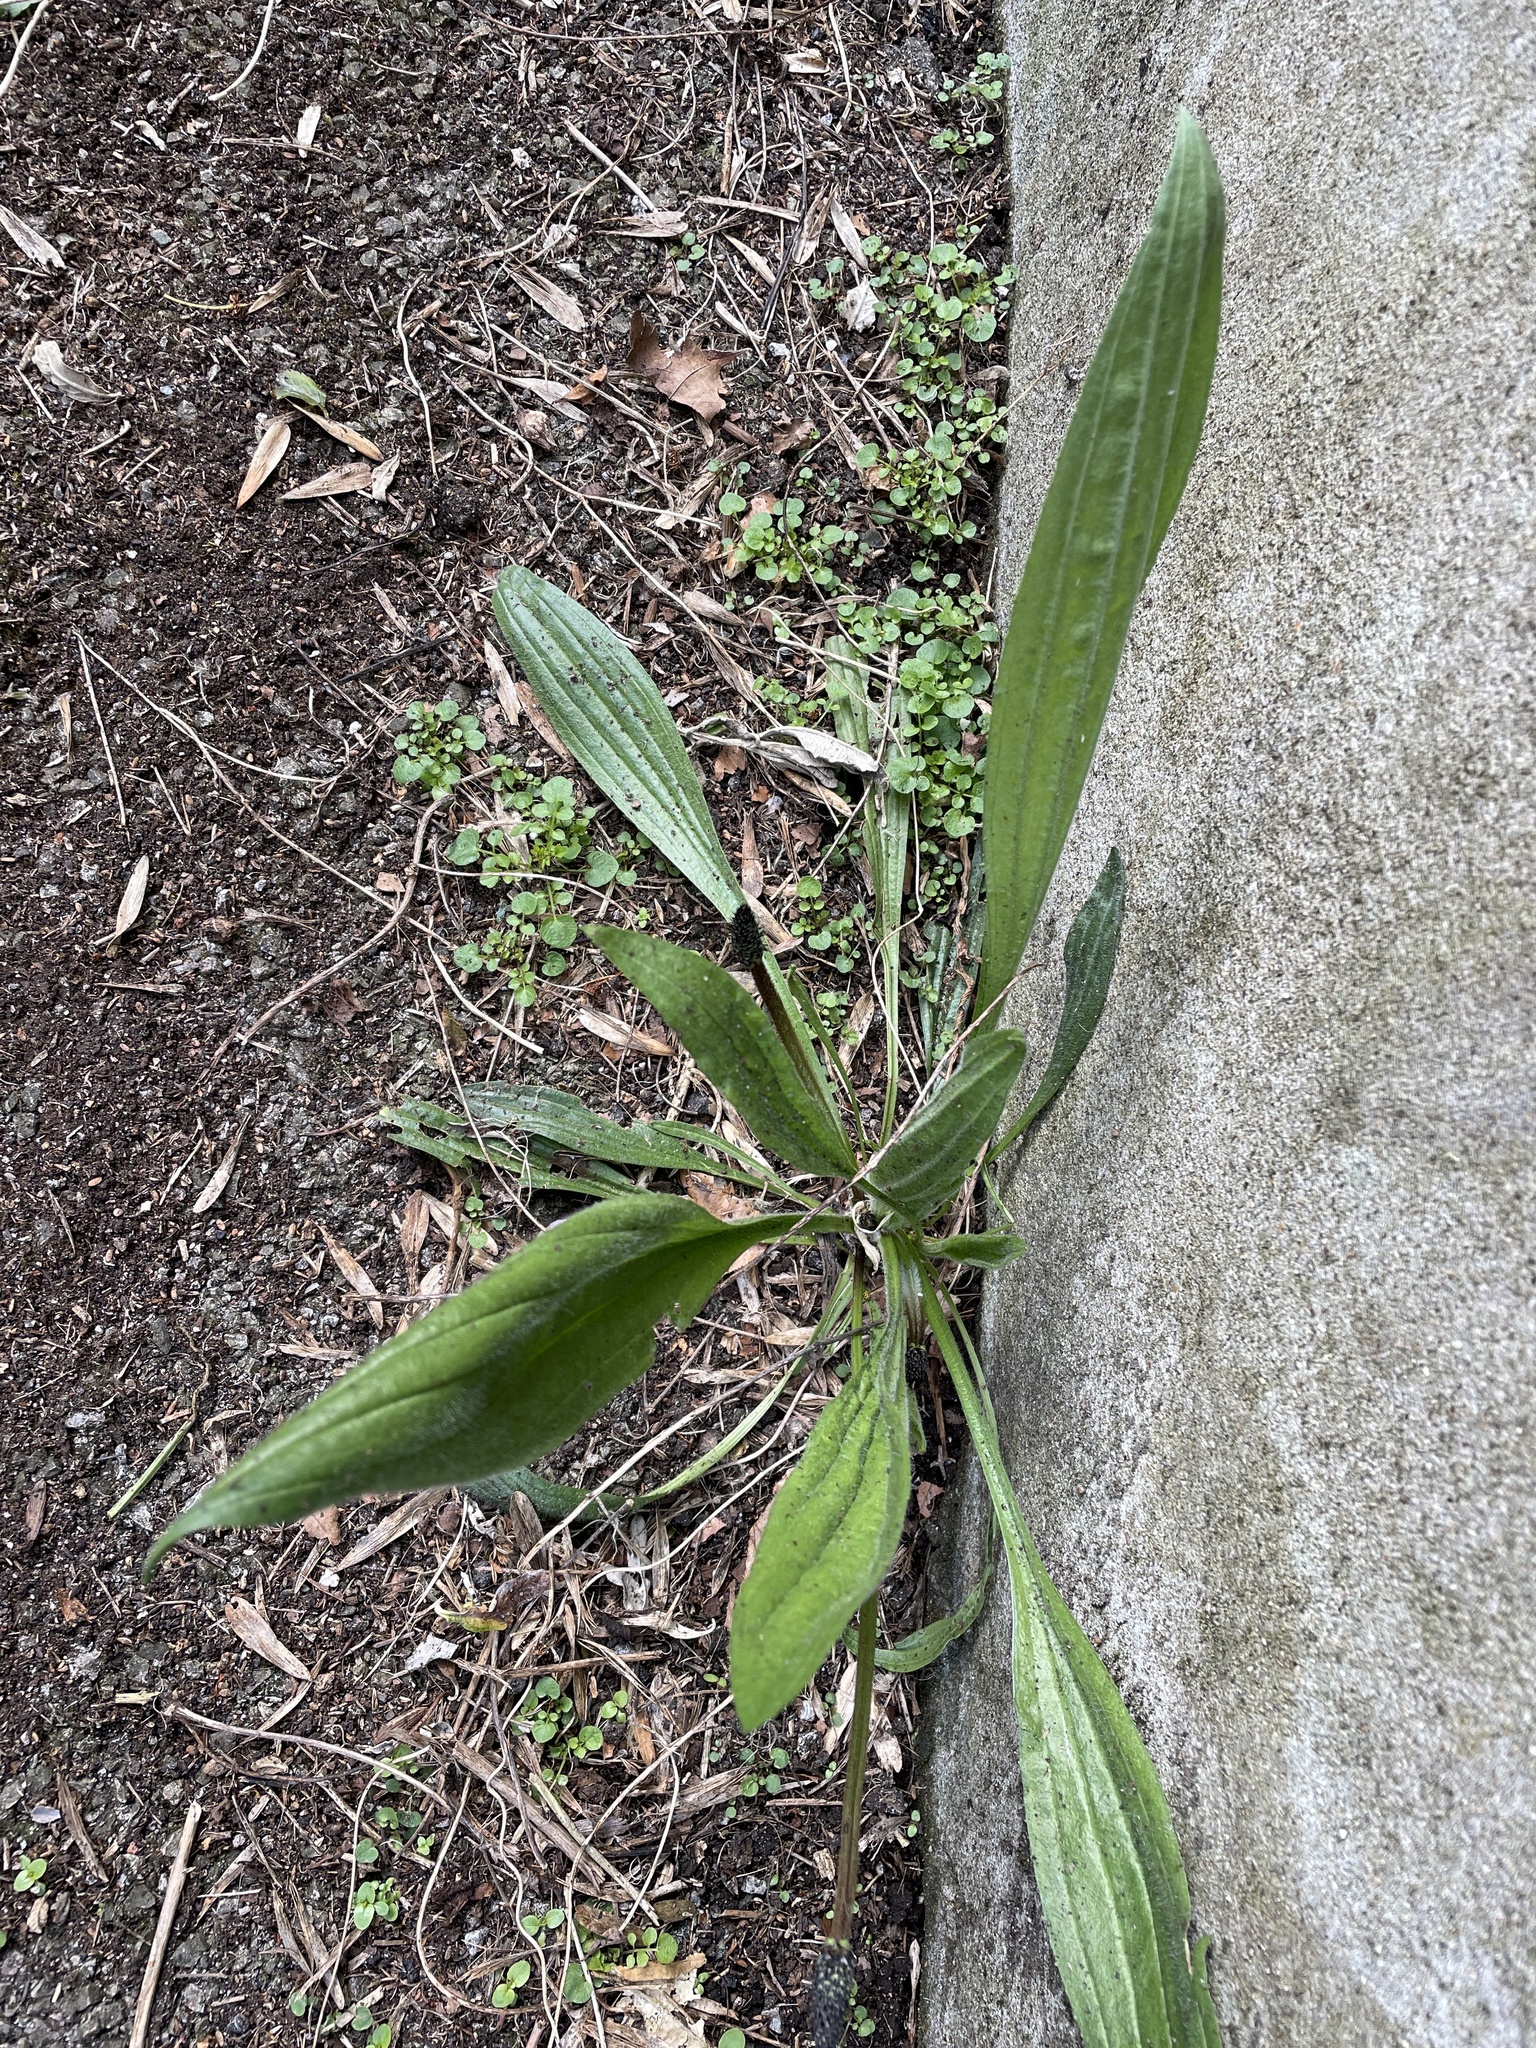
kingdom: Plantae
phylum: Tracheophyta
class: Magnoliopsida
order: Lamiales
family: Plantaginaceae
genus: Plantago
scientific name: Plantago lanceolata
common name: Ribwort plantain
